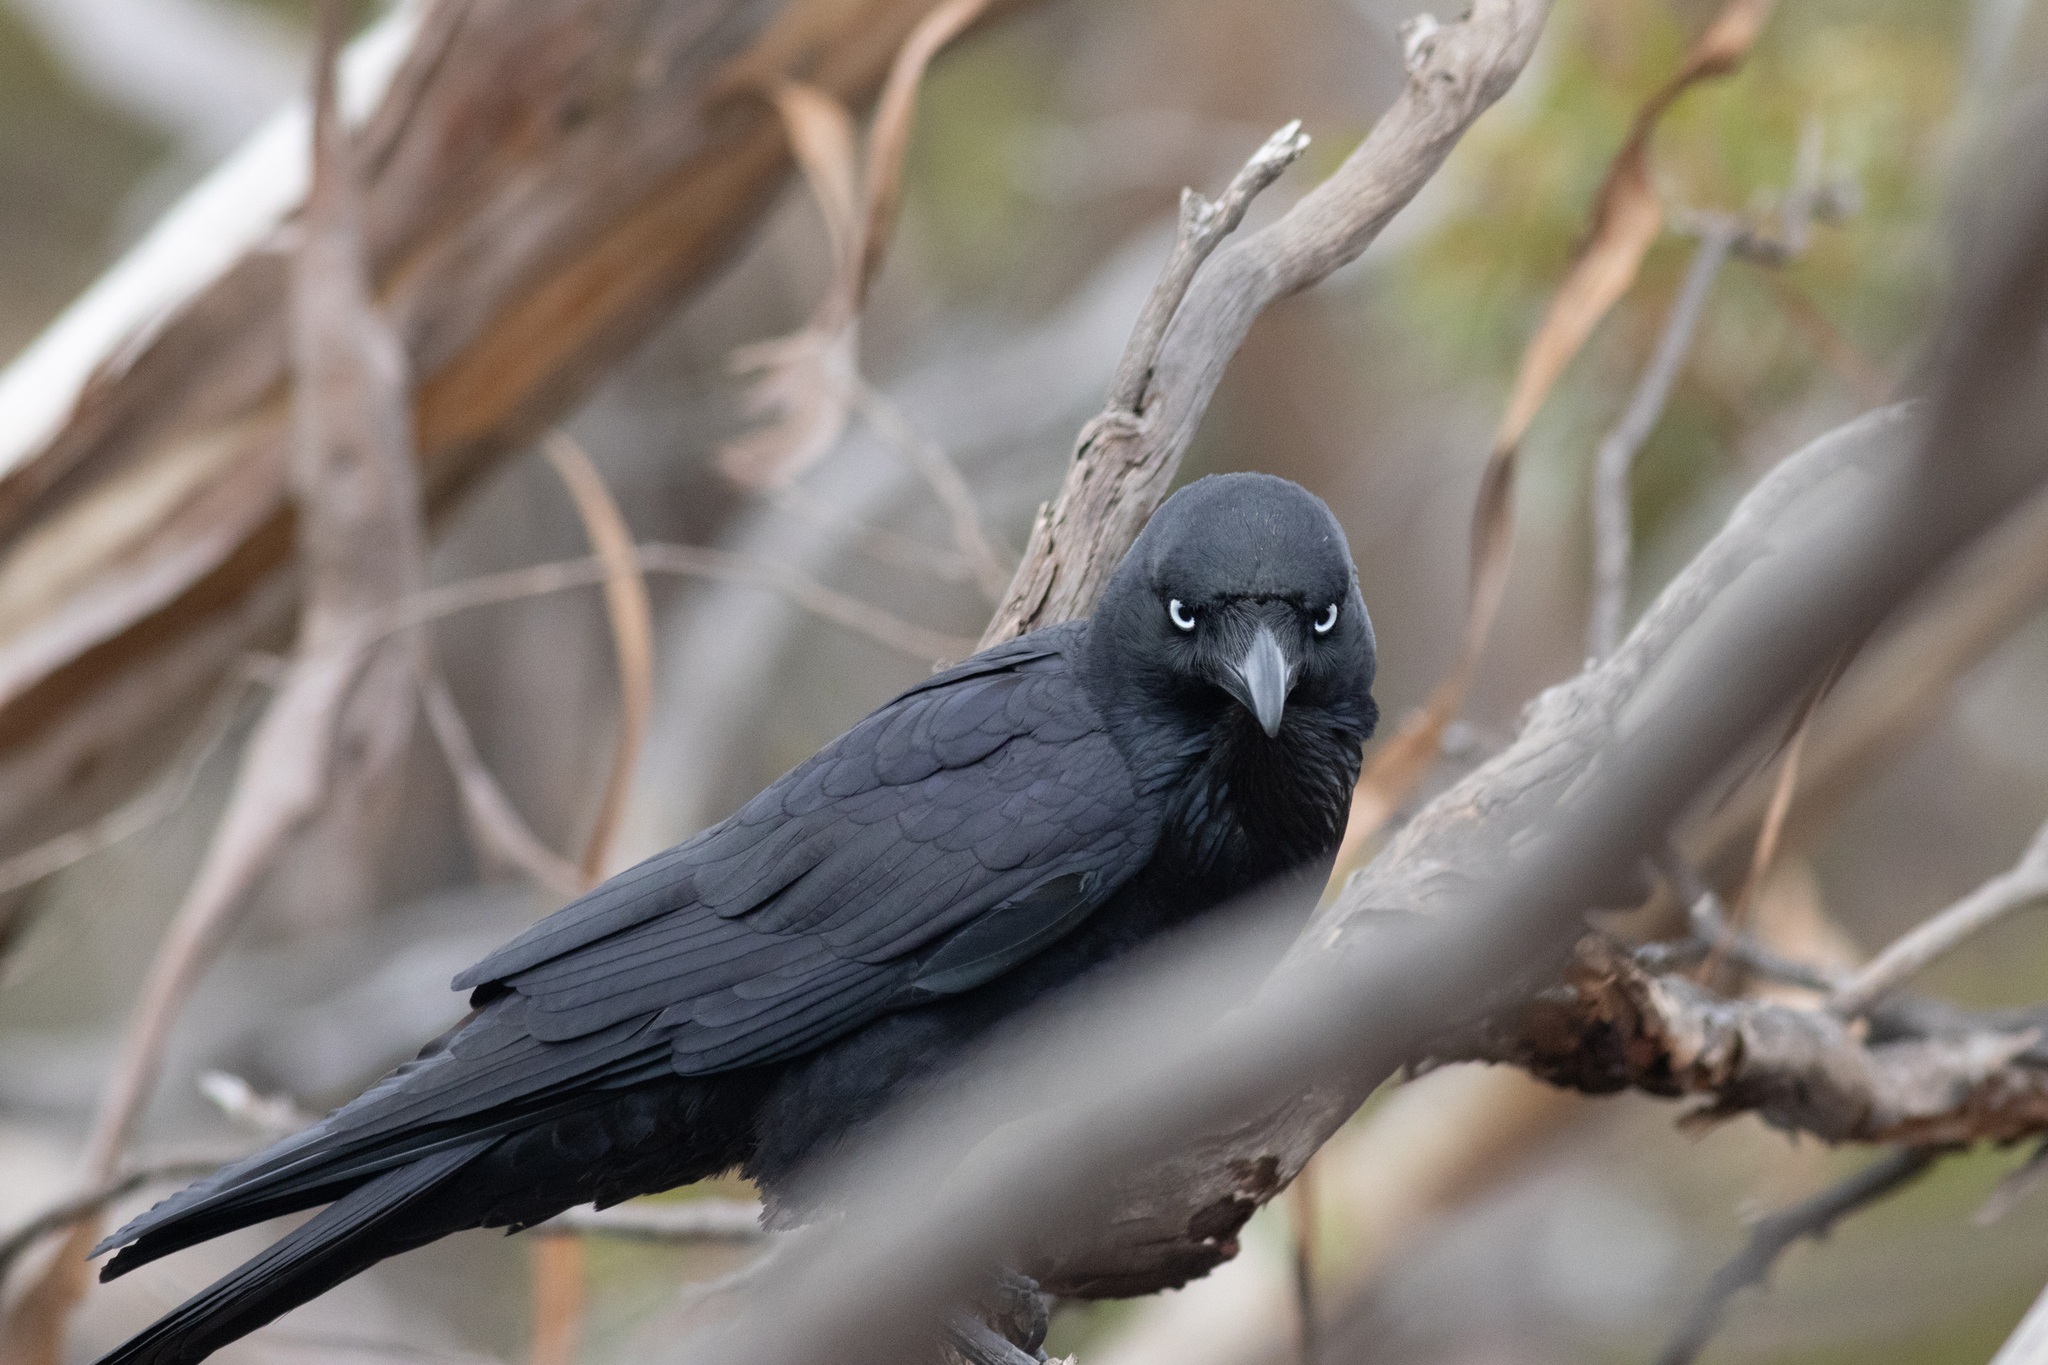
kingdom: Animalia
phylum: Chordata
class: Aves
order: Passeriformes
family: Corvidae
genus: Corvus
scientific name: Corvus coronoides
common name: Australian raven
